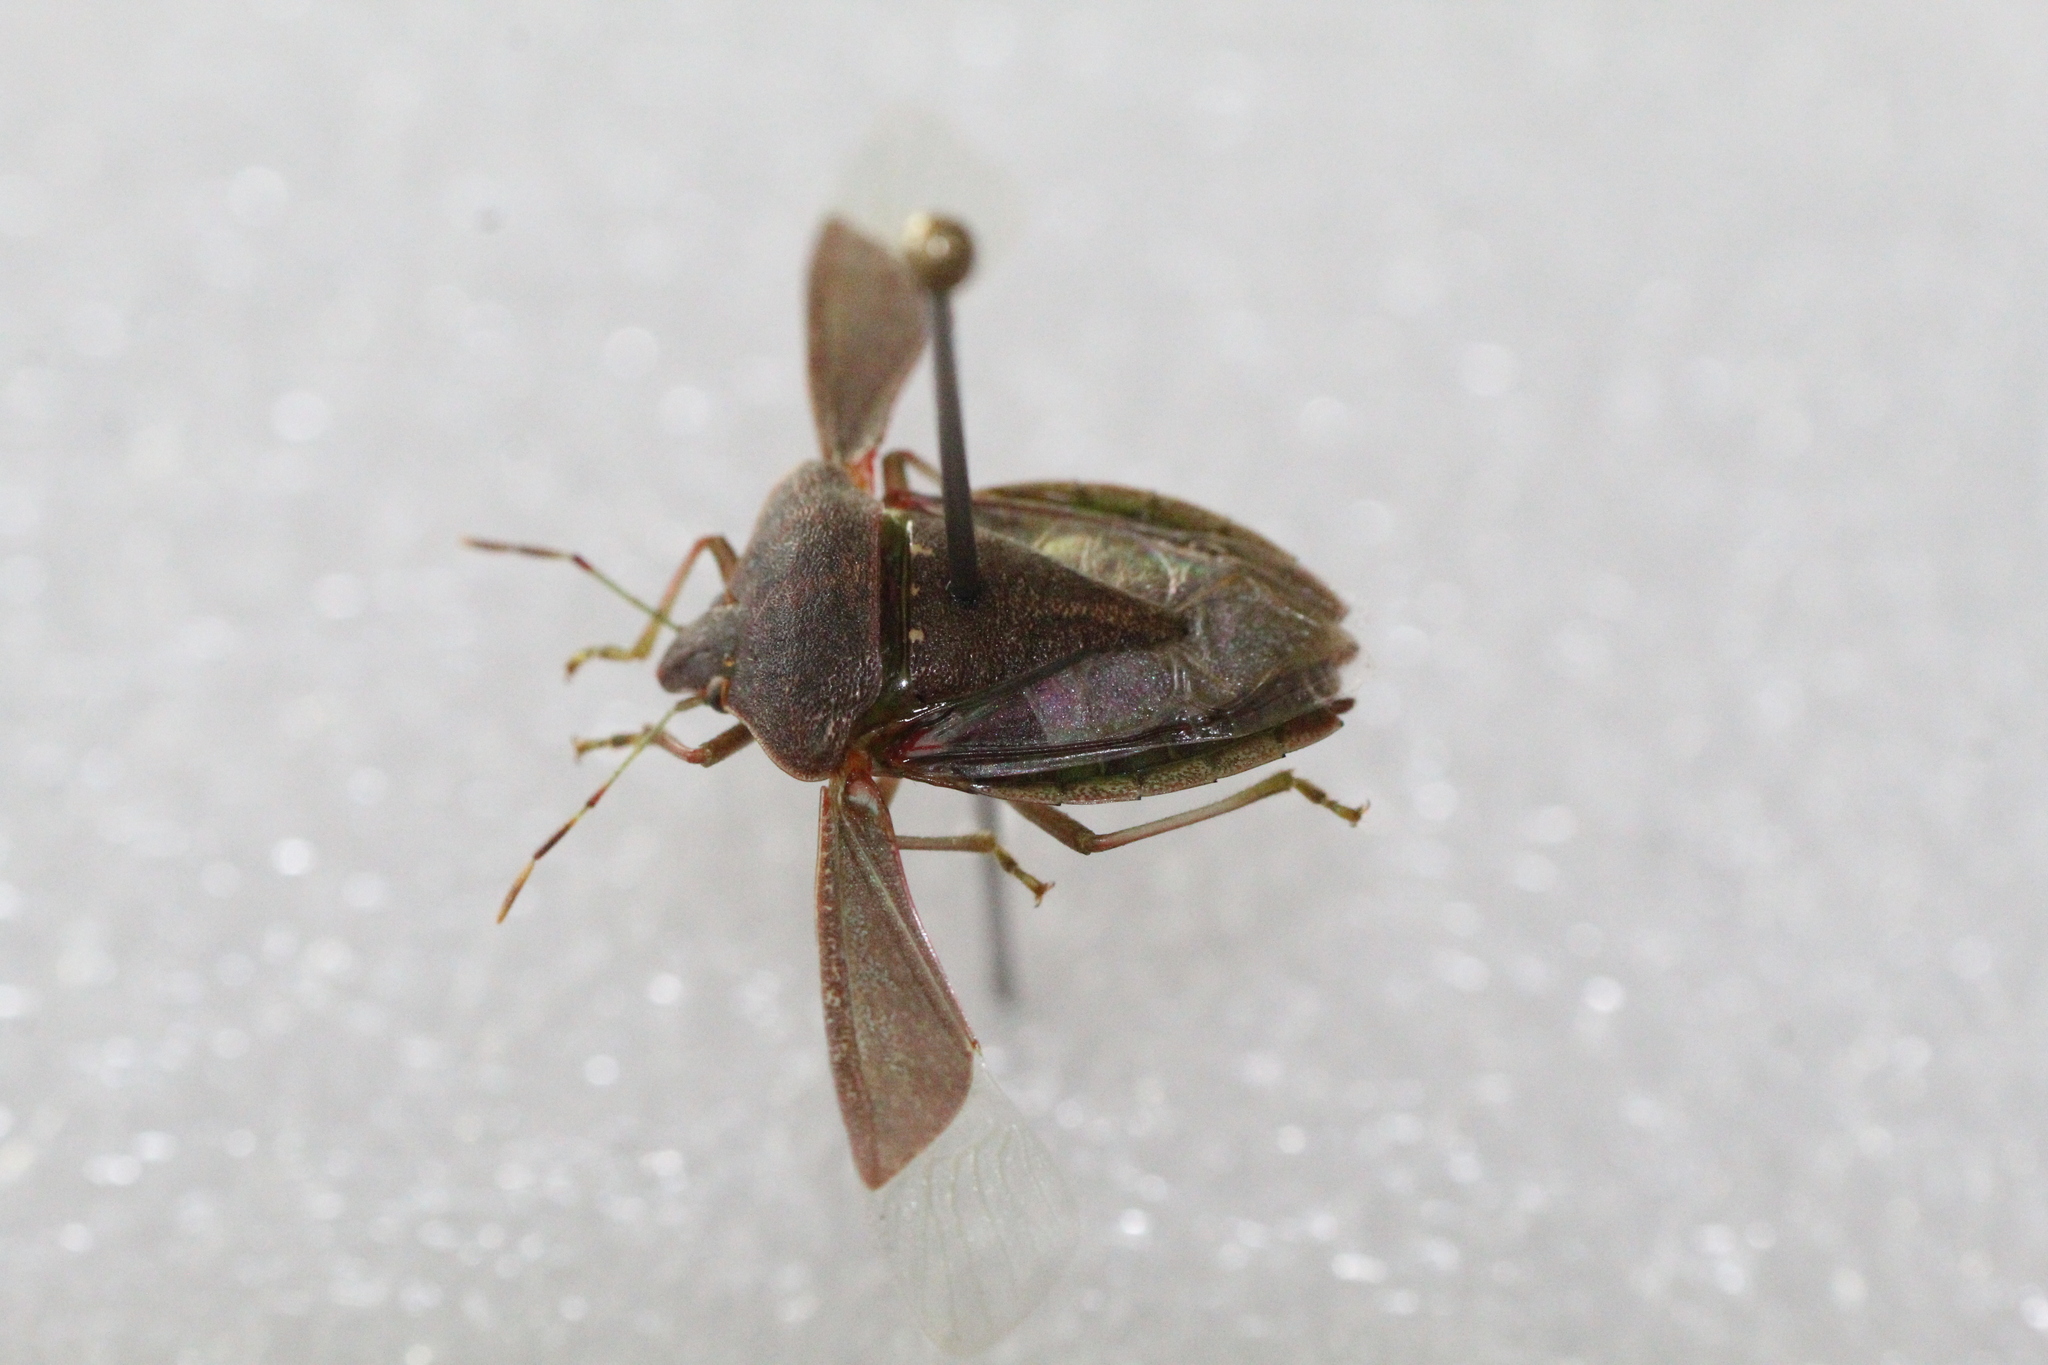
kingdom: Animalia
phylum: Arthropoda
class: Insecta
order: Hemiptera
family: Pentatomidae
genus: Nezara
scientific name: Nezara viridula
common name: Southern green stink bug
